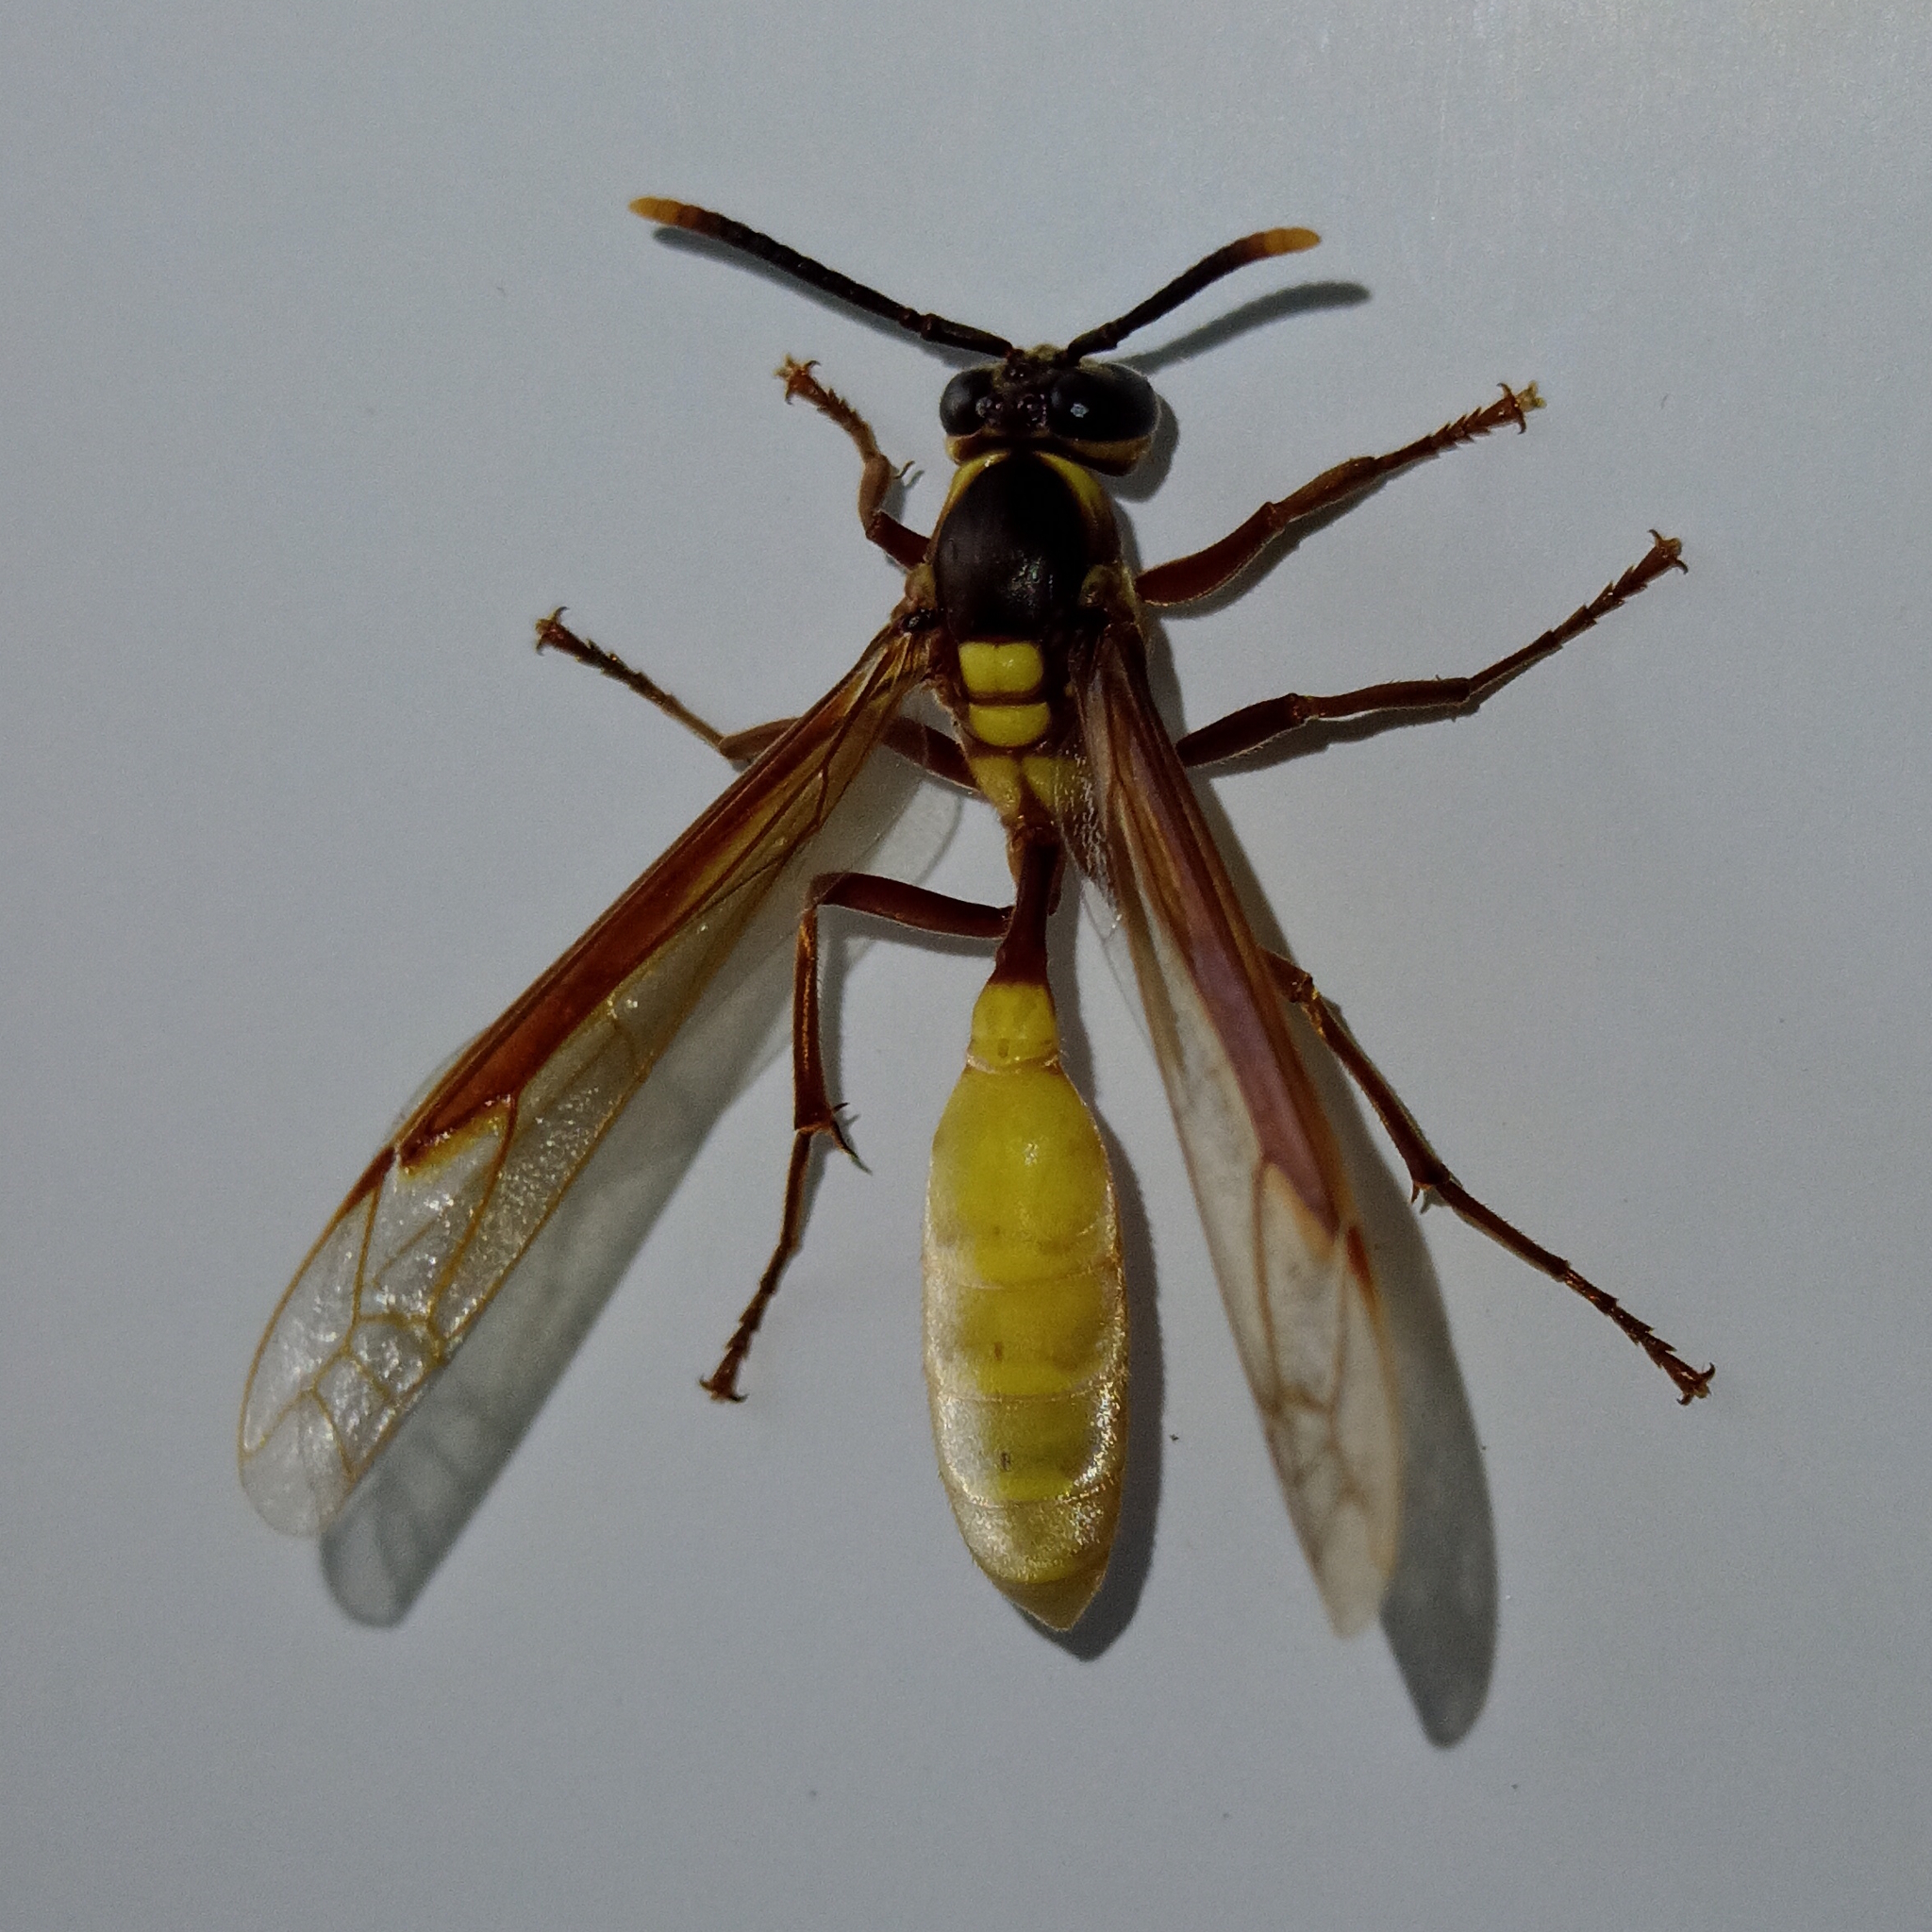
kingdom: Animalia
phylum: Arthropoda
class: Insecta
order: Hymenoptera
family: Vespidae
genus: Apoica
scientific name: Apoica pallens
